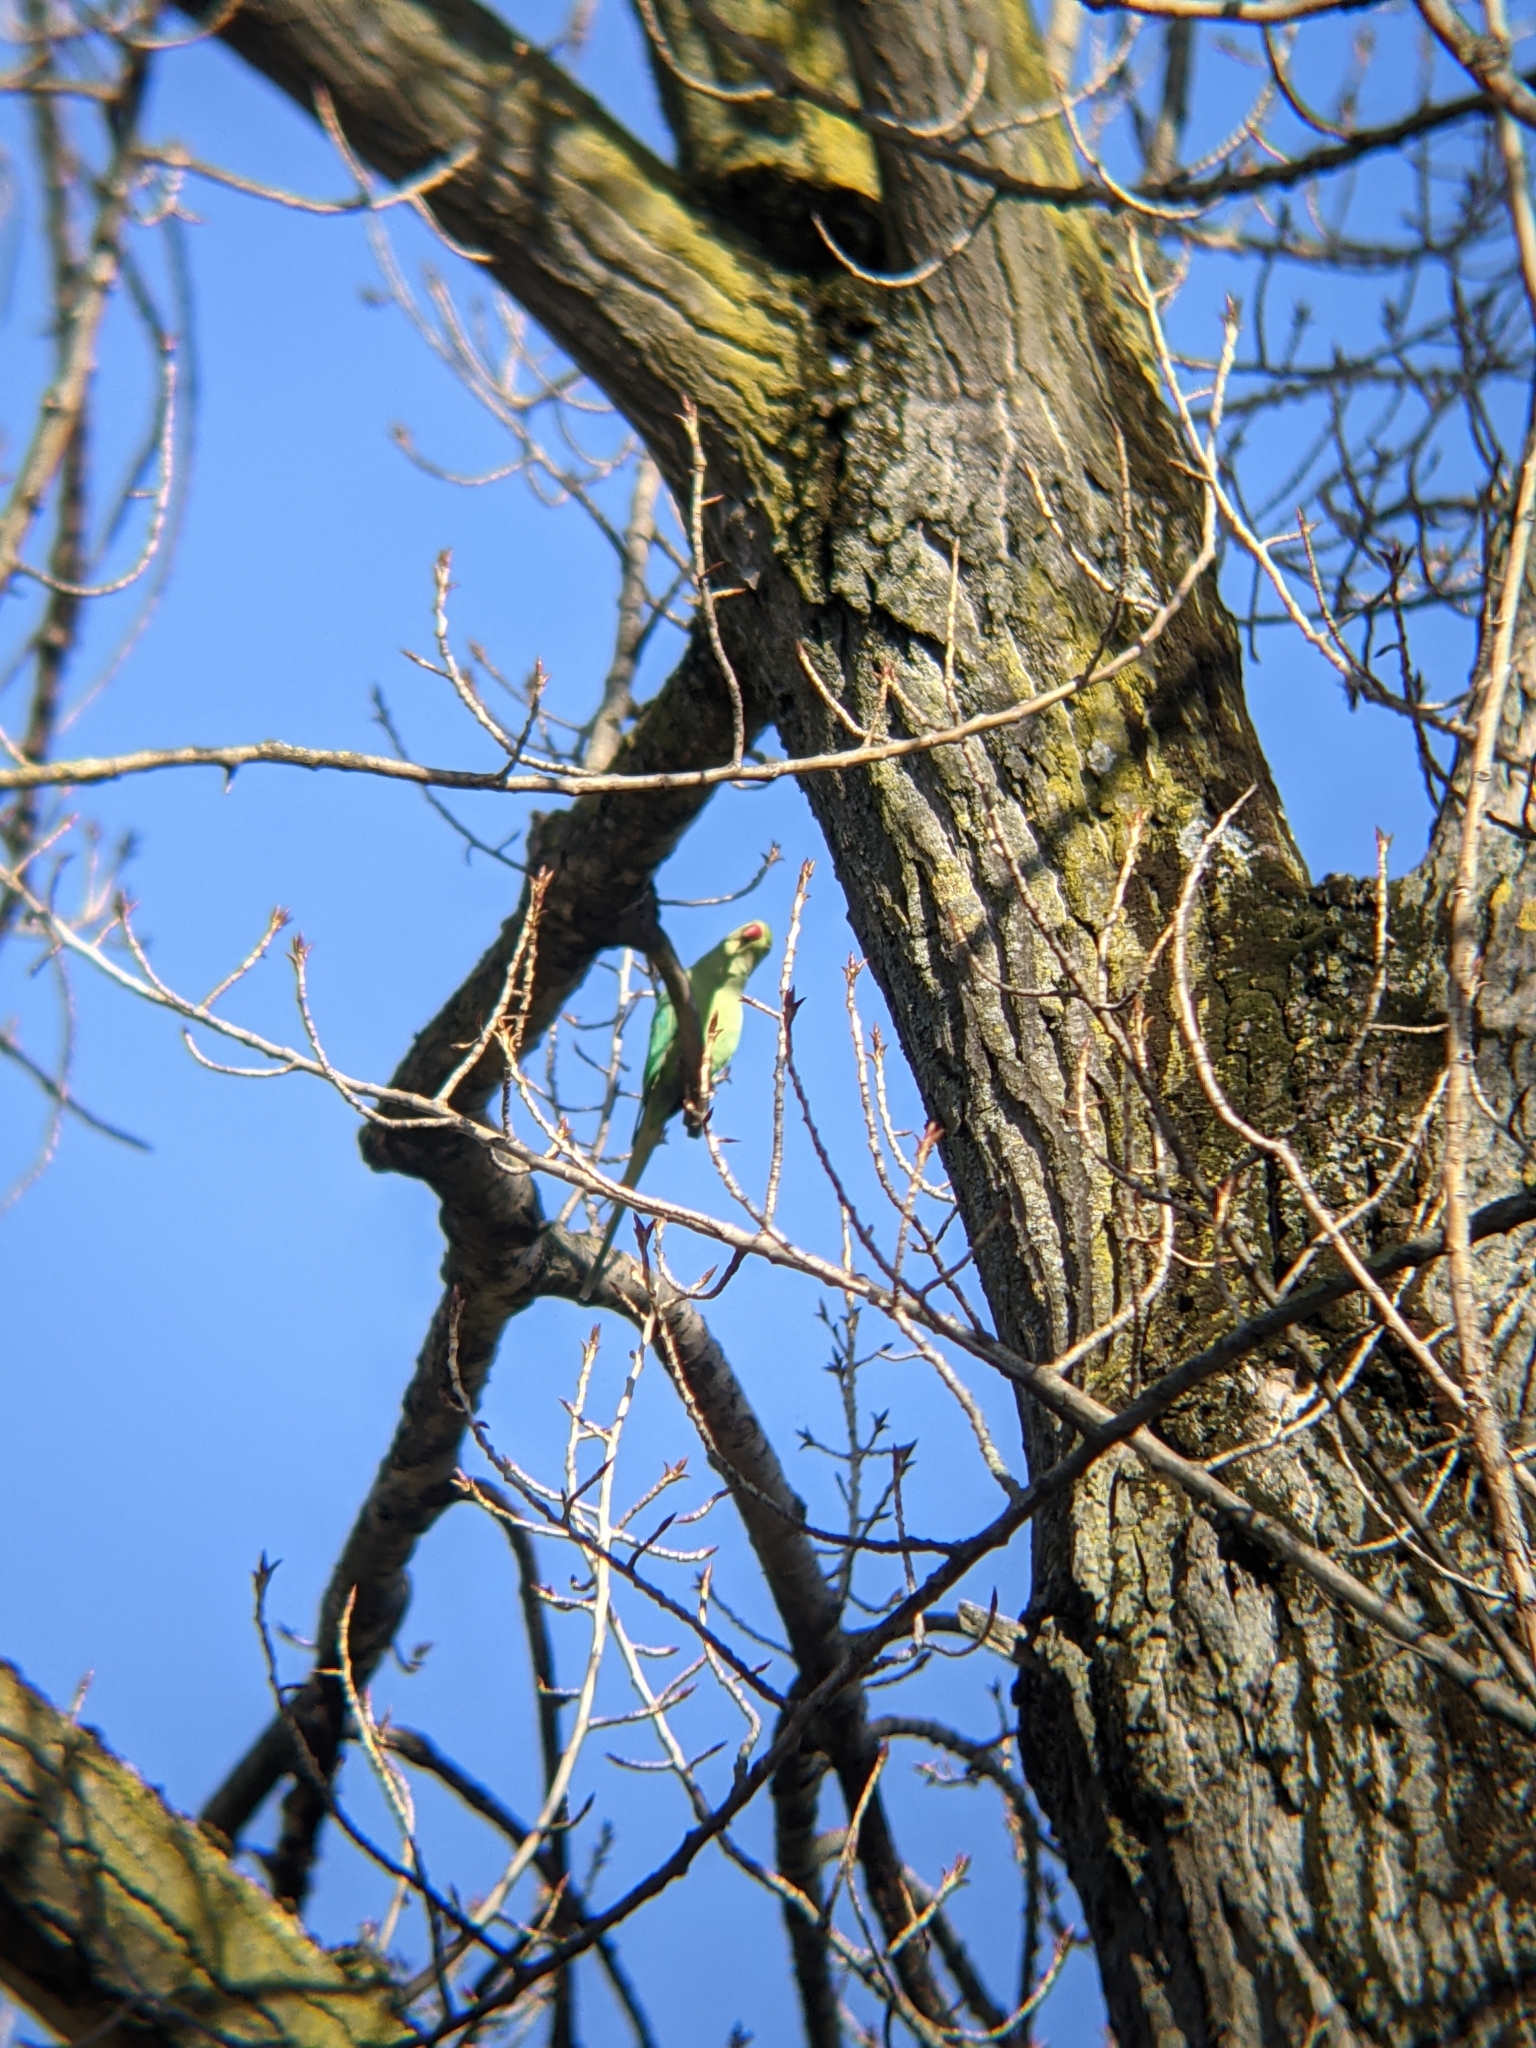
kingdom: Animalia
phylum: Chordata
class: Aves
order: Psittaciformes
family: Psittacidae
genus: Psittacula
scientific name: Psittacula krameri
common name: Rose-ringed parakeet
